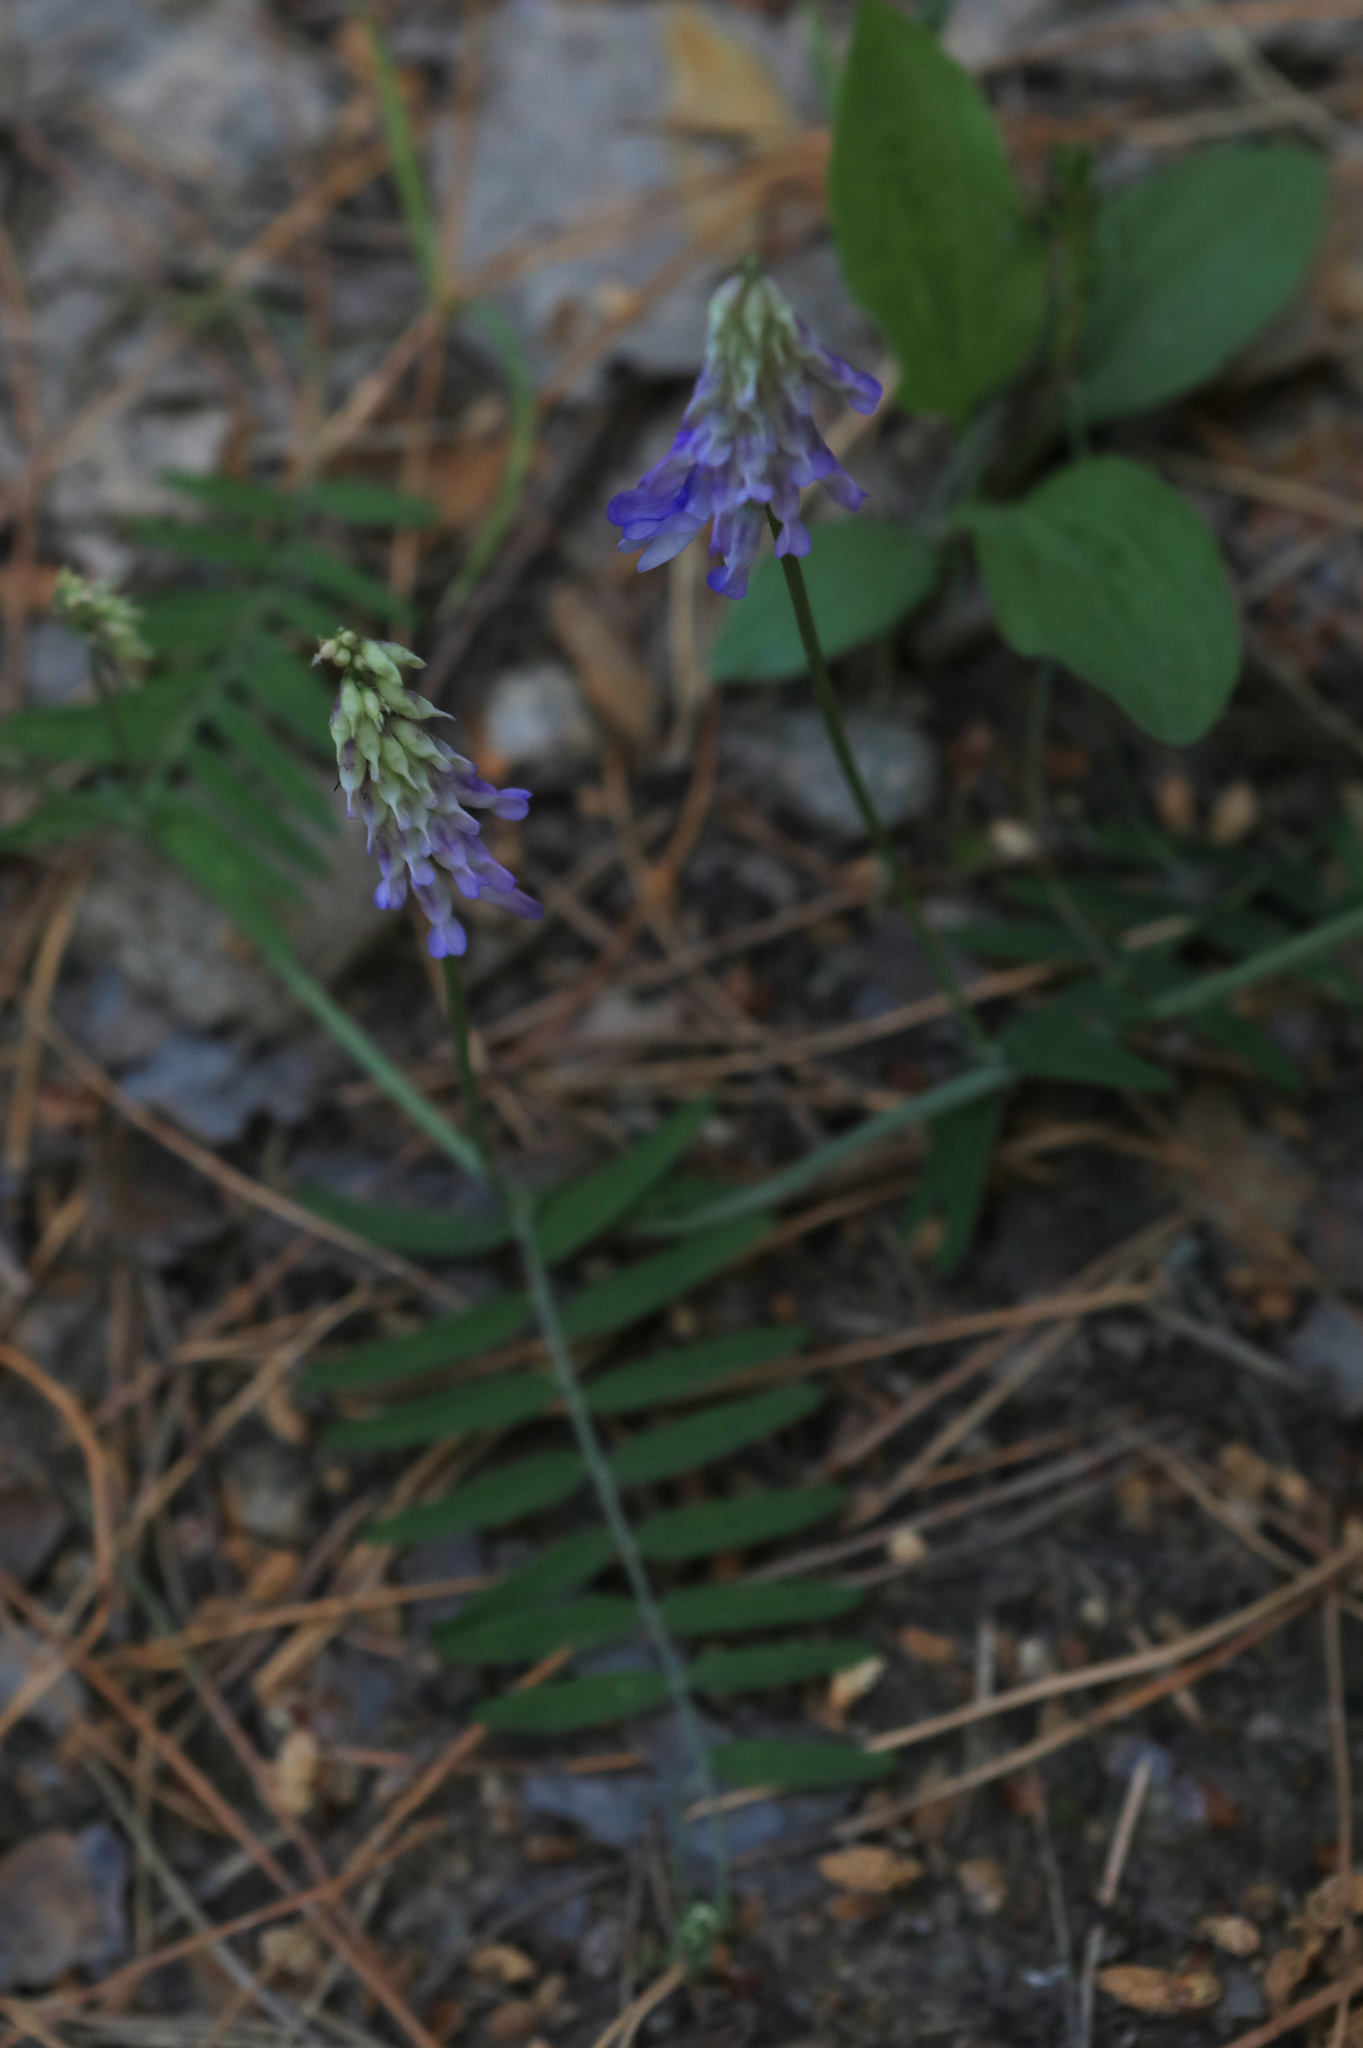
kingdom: Plantae
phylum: Tracheophyta
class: Magnoliopsida
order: Fabales
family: Fabaceae
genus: Vicia
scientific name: Vicia cracca
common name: Bird vetch
